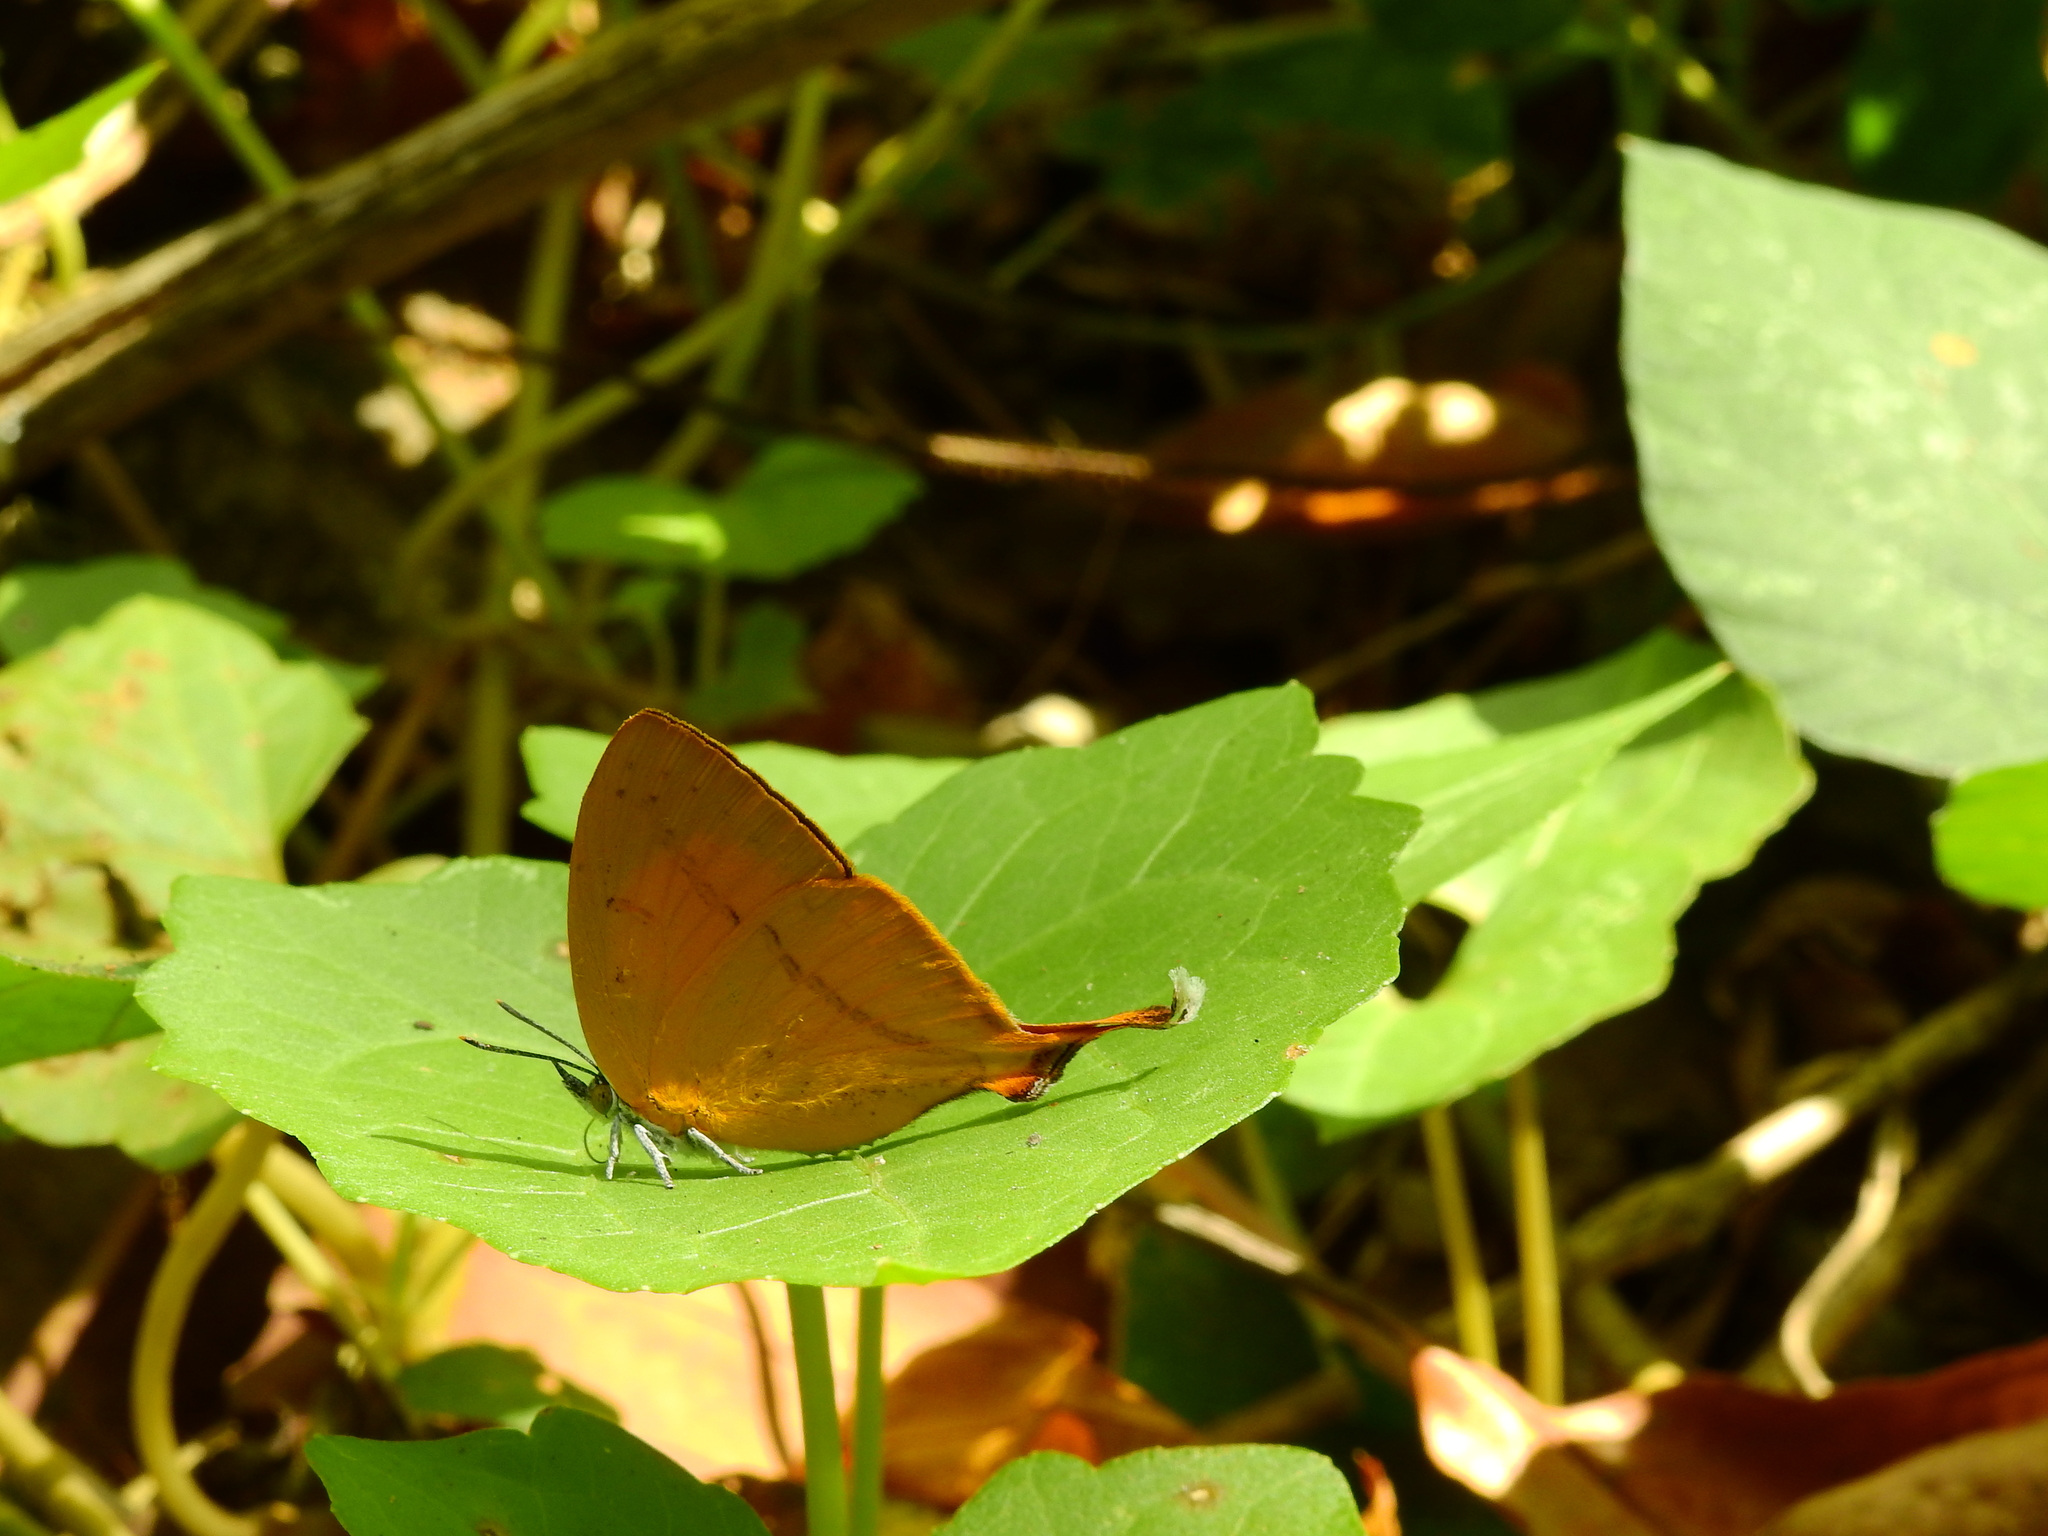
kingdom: Animalia
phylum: Arthropoda
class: Insecta
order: Lepidoptera
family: Lycaenidae
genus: Loxura
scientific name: Loxura atymnus
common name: Common yamfly
